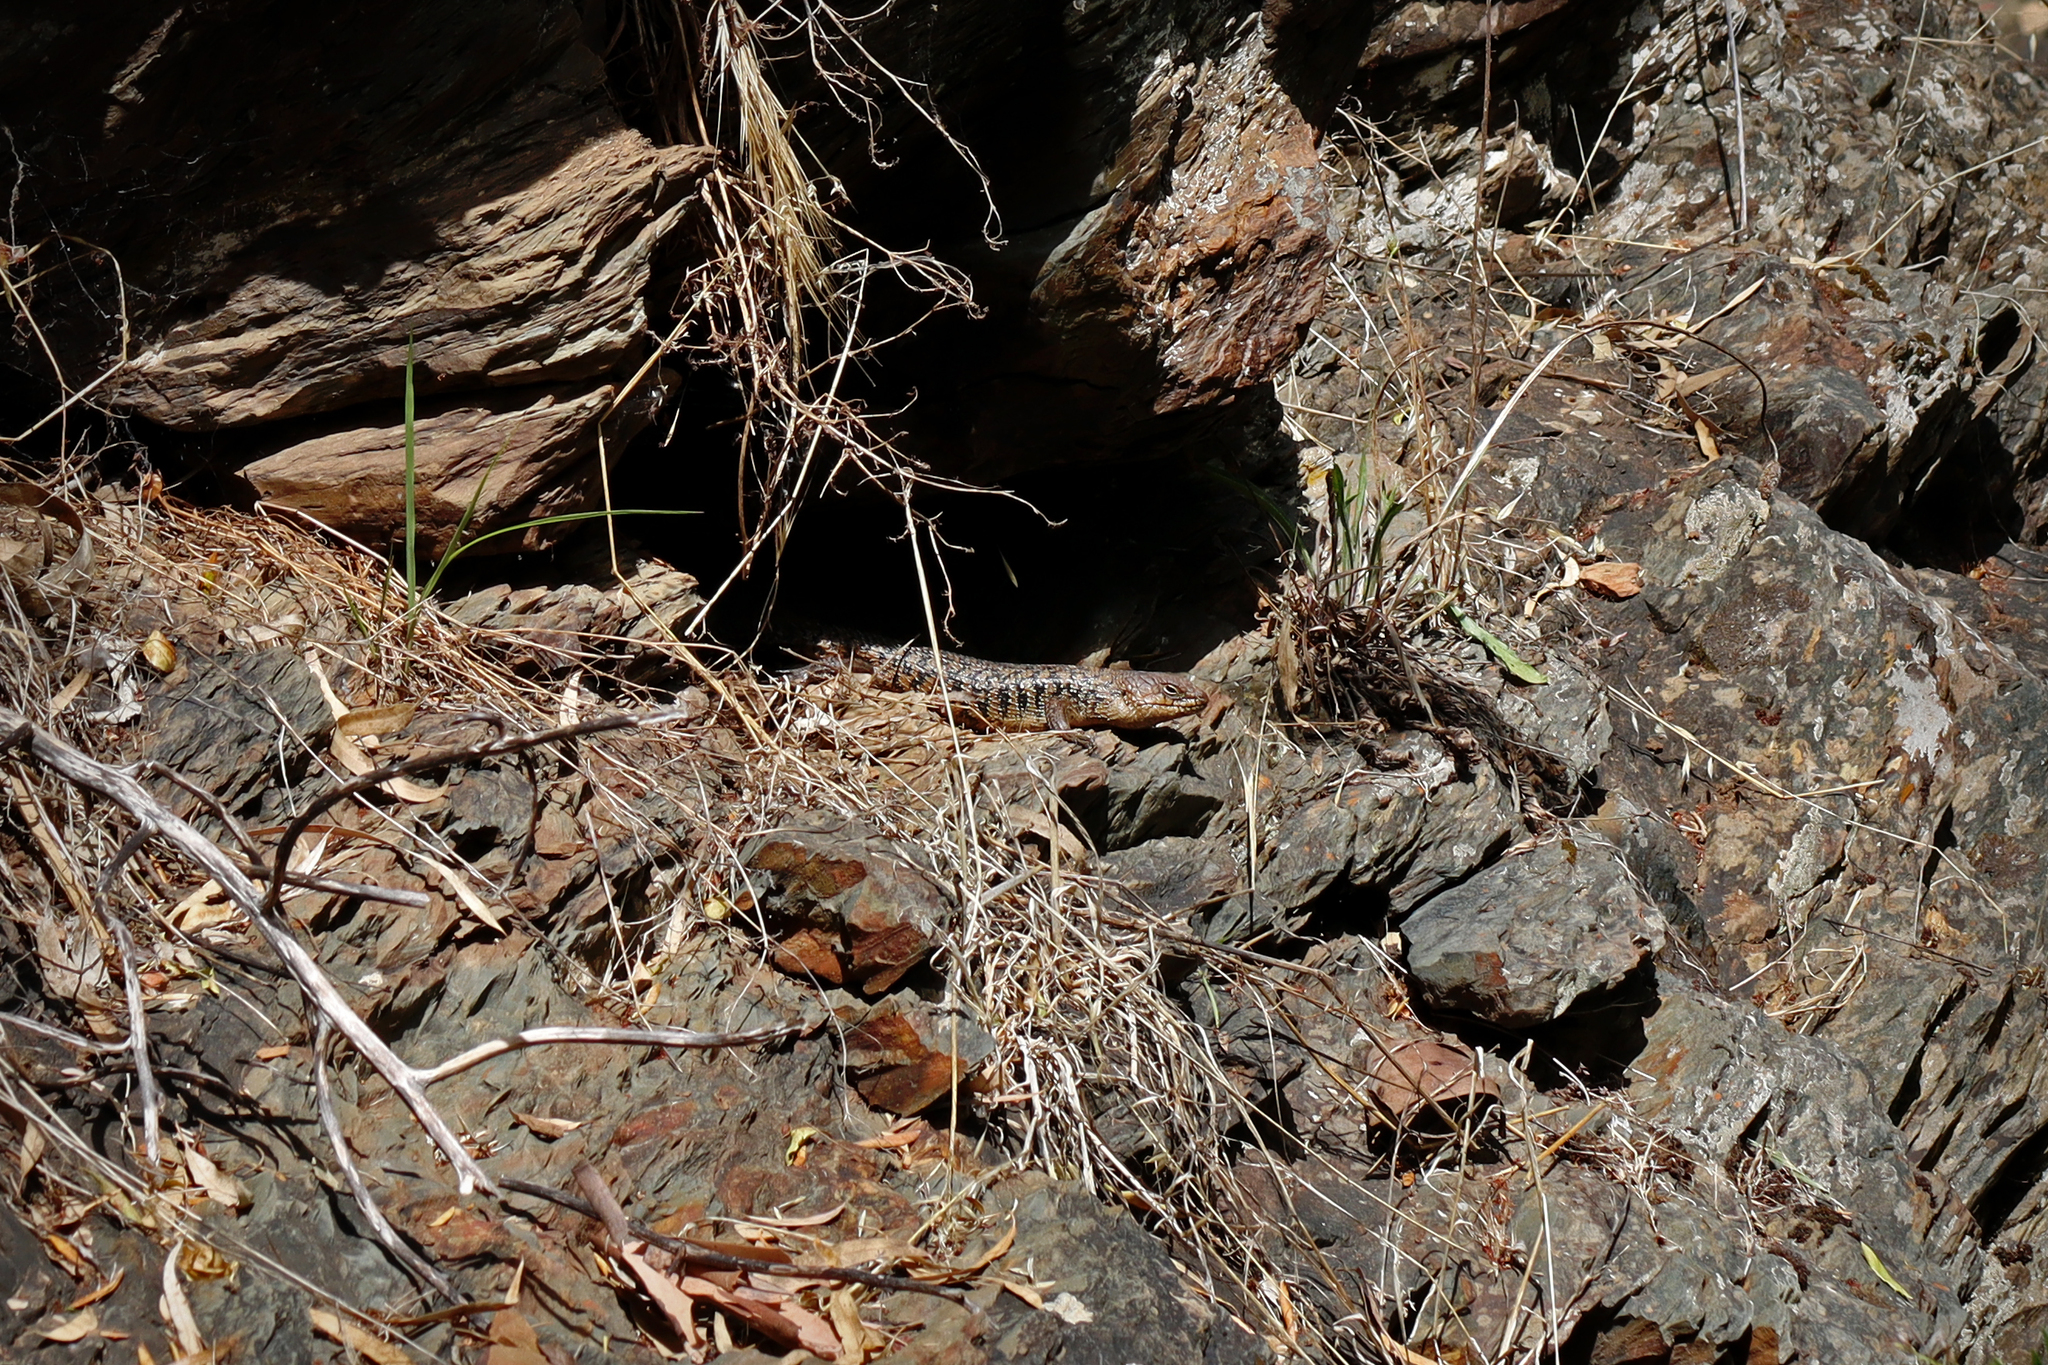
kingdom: Animalia
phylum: Chordata
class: Squamata
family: Scincidae
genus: Egernia
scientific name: Egernia cunninghami
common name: Cunningham's skink
